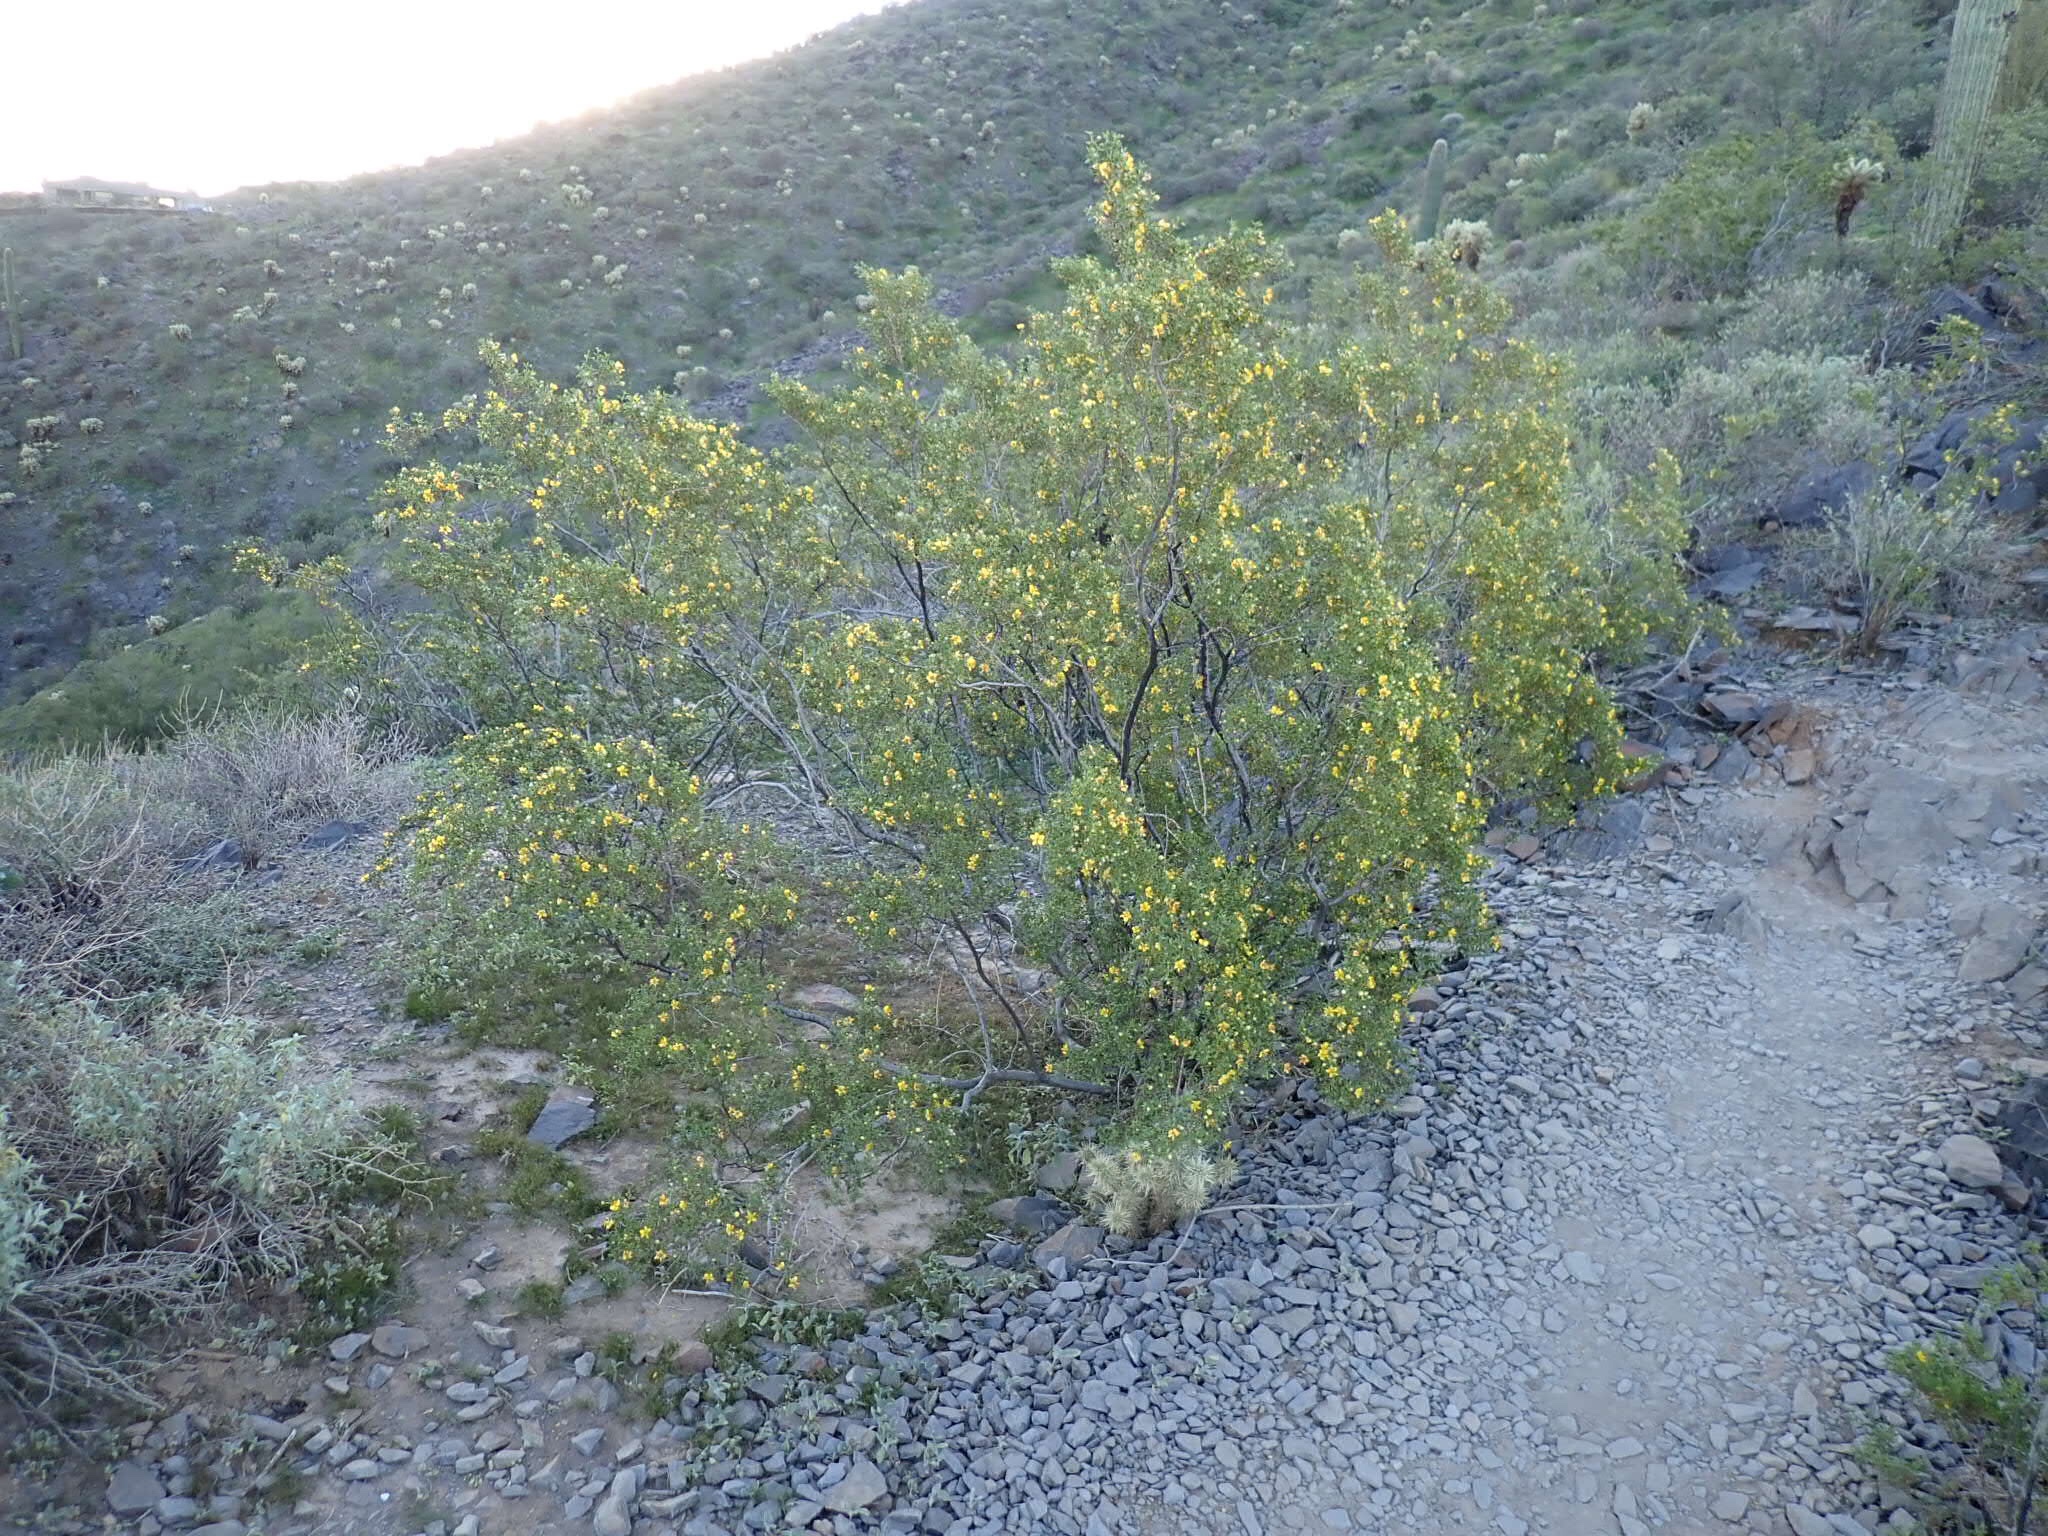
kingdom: Plantae
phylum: Tracheophyta
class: Magnoliopsida
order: Zygophyllales
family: Zygophyllaceae
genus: Larrea
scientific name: Larrea tridentata
